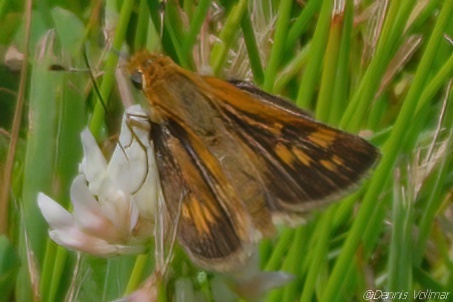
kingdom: Animalia
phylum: Arthropoda
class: Insecta
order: Lepidoptera
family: Hesperiidae
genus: Polites
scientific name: Polites coras
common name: Peck's skipper
